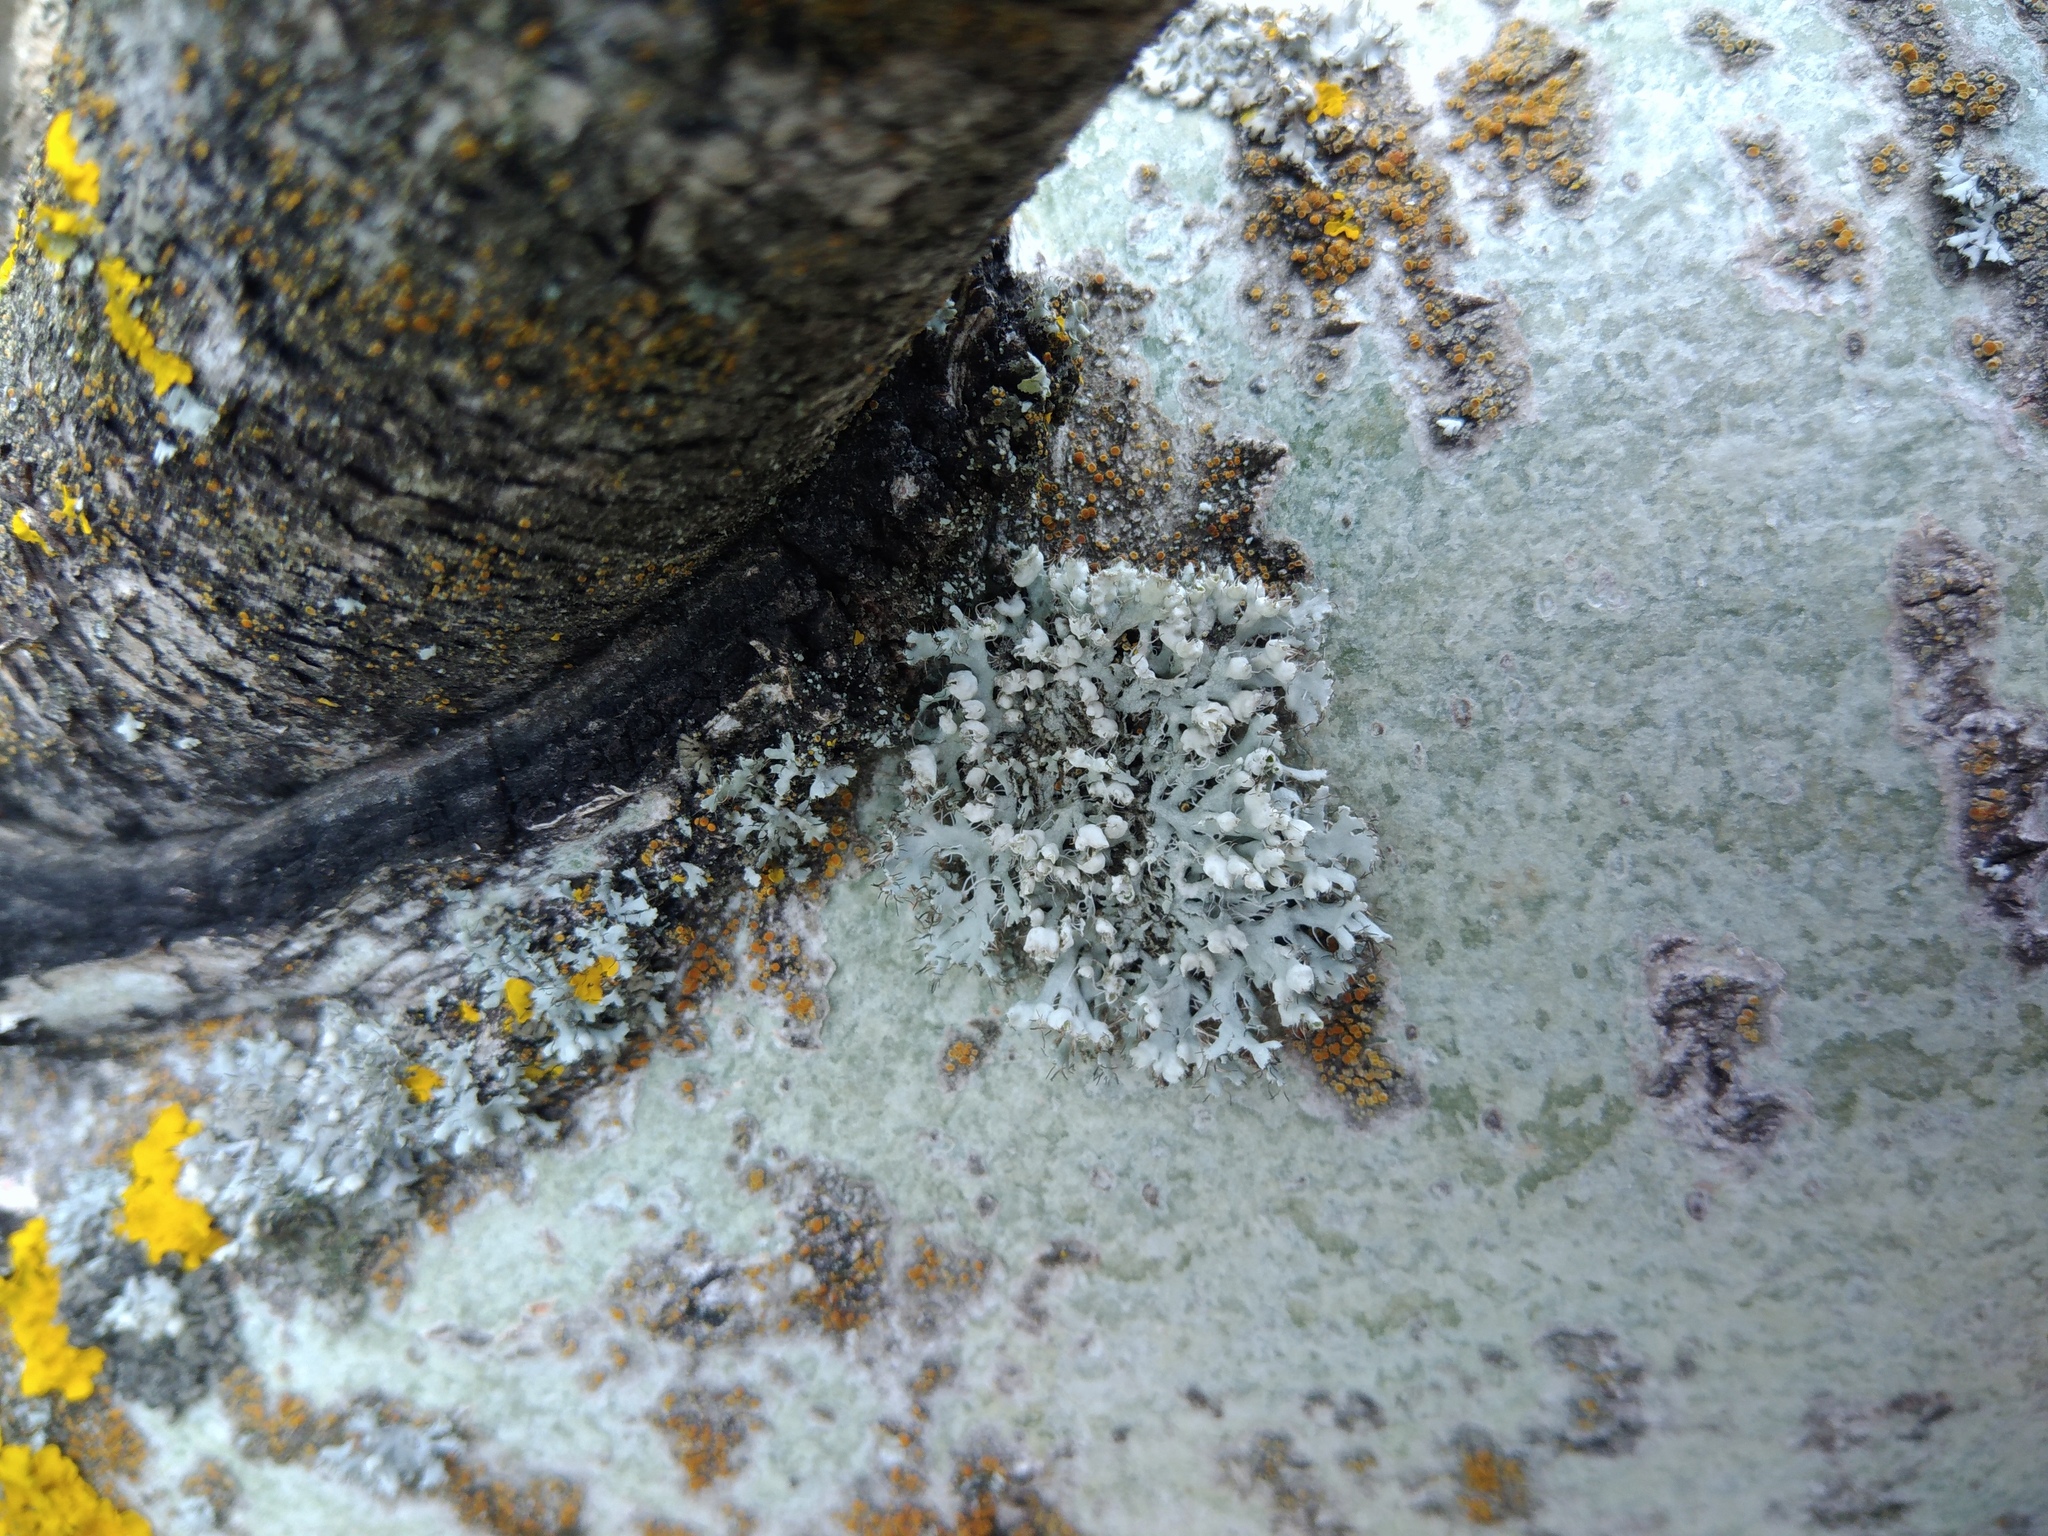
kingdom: Fungi
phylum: Ascomycota
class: Lecanoromycetes
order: Caliciales
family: Physciaceae
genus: Physcia
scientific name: Physcia adscendens
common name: Hooded rosette lichen
